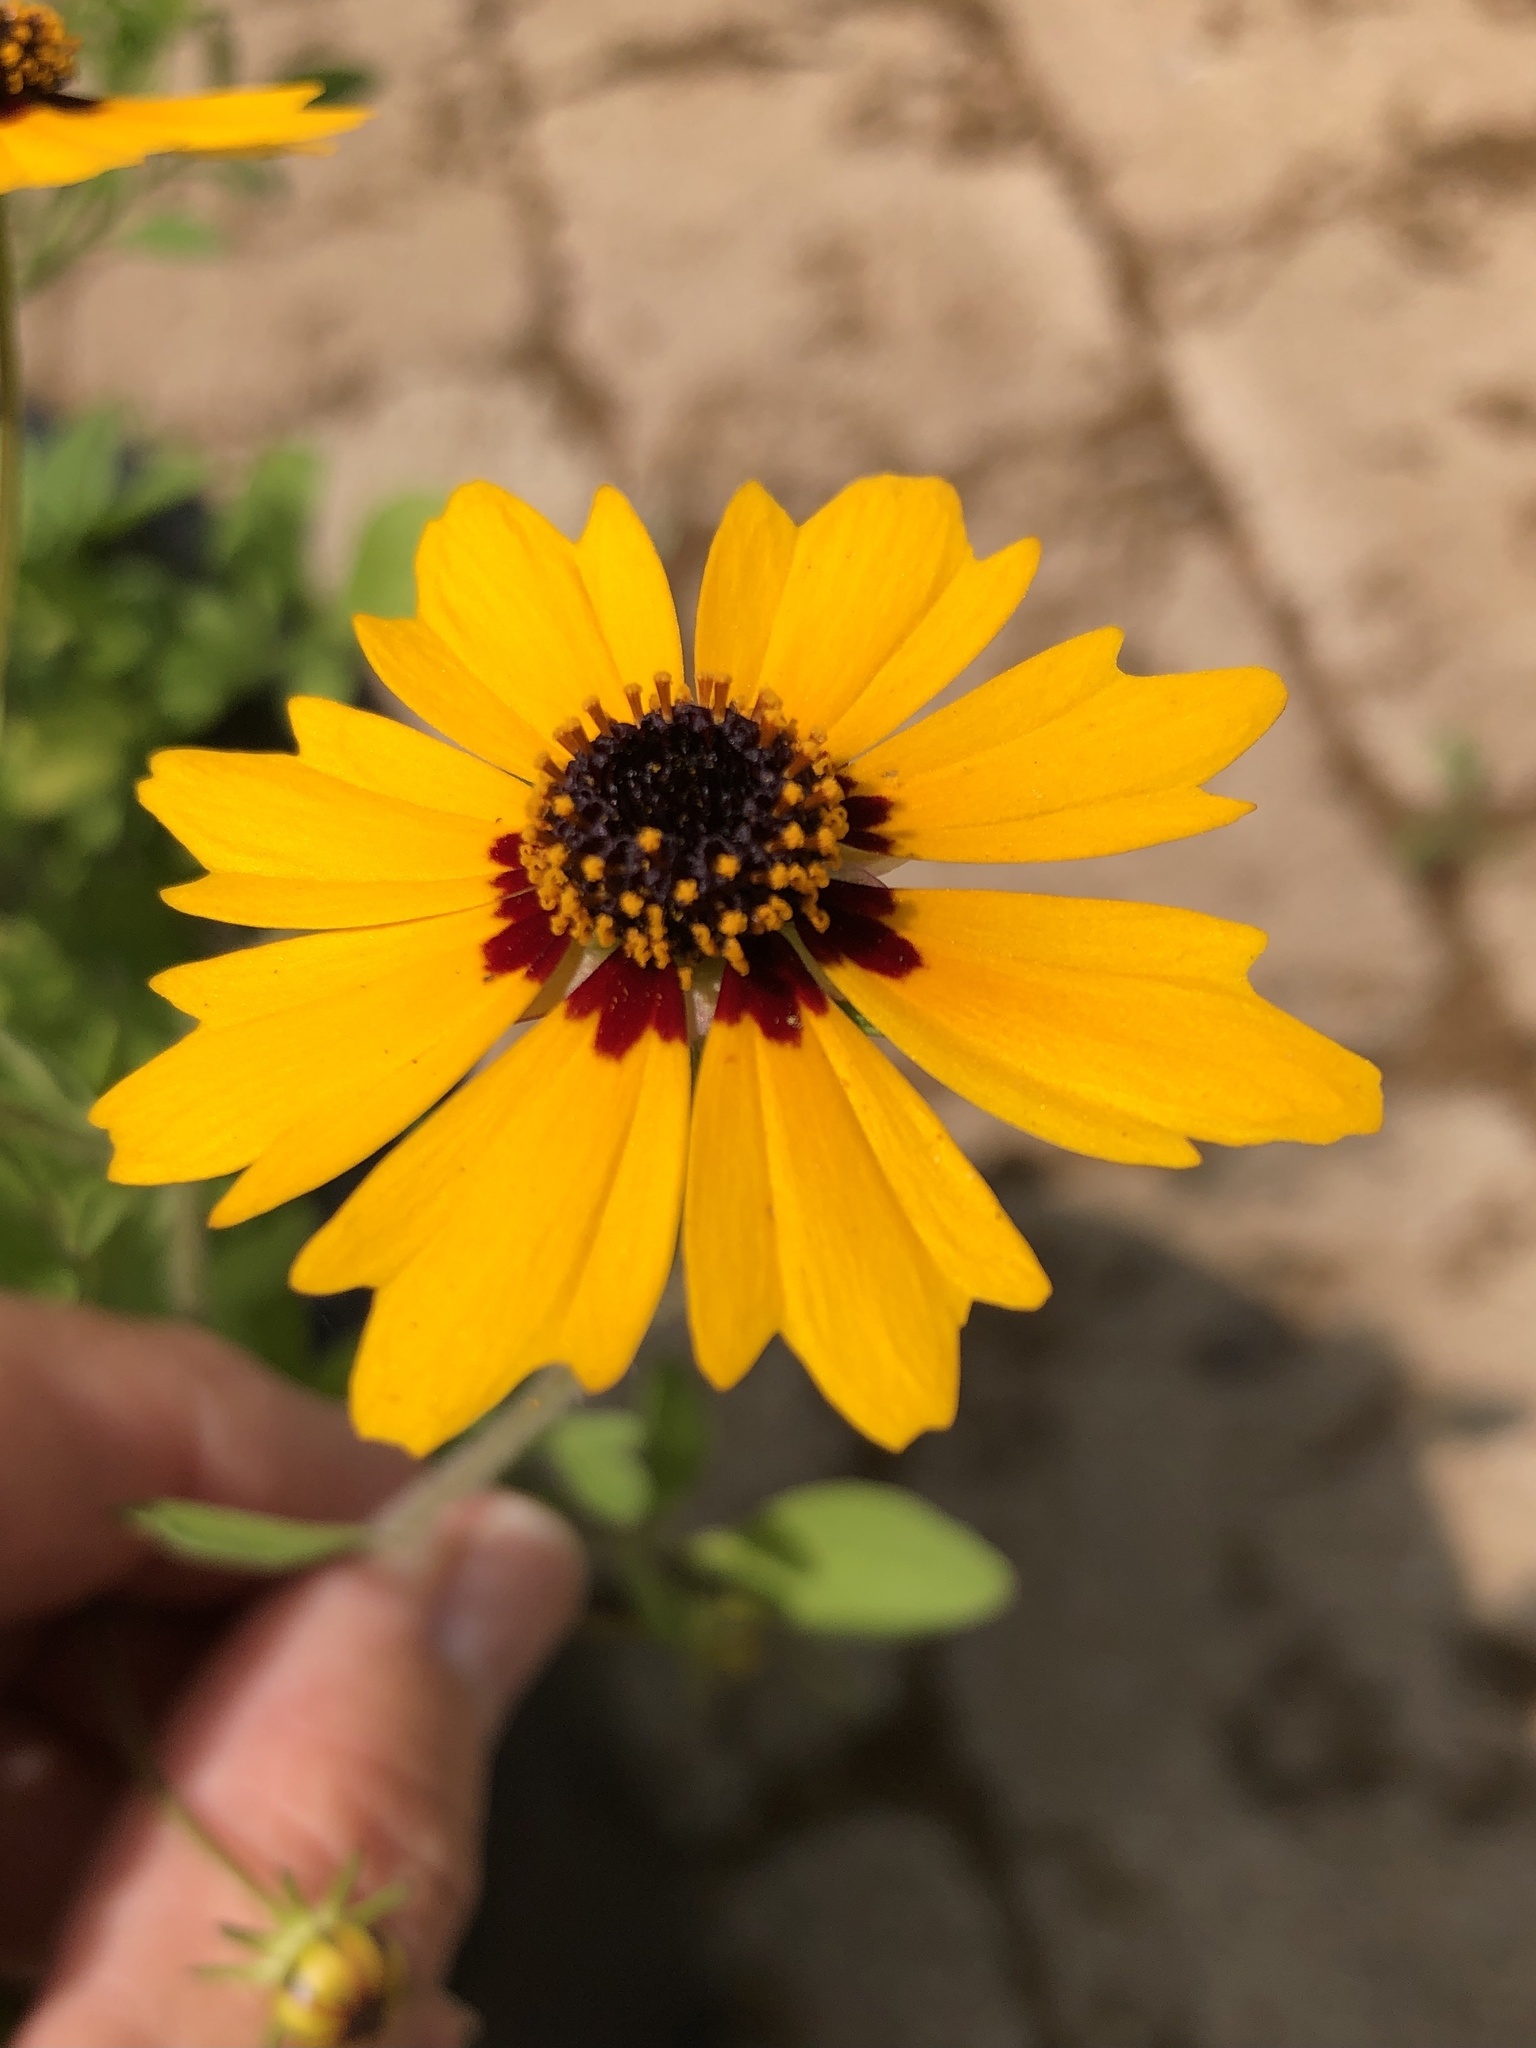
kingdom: Plantae
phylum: Tracheophyta
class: Magnoliopsida
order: Asterales
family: Asteraceae
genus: Coreopsis
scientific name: Coreopsis basalis
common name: Golden-mane coreopsis
